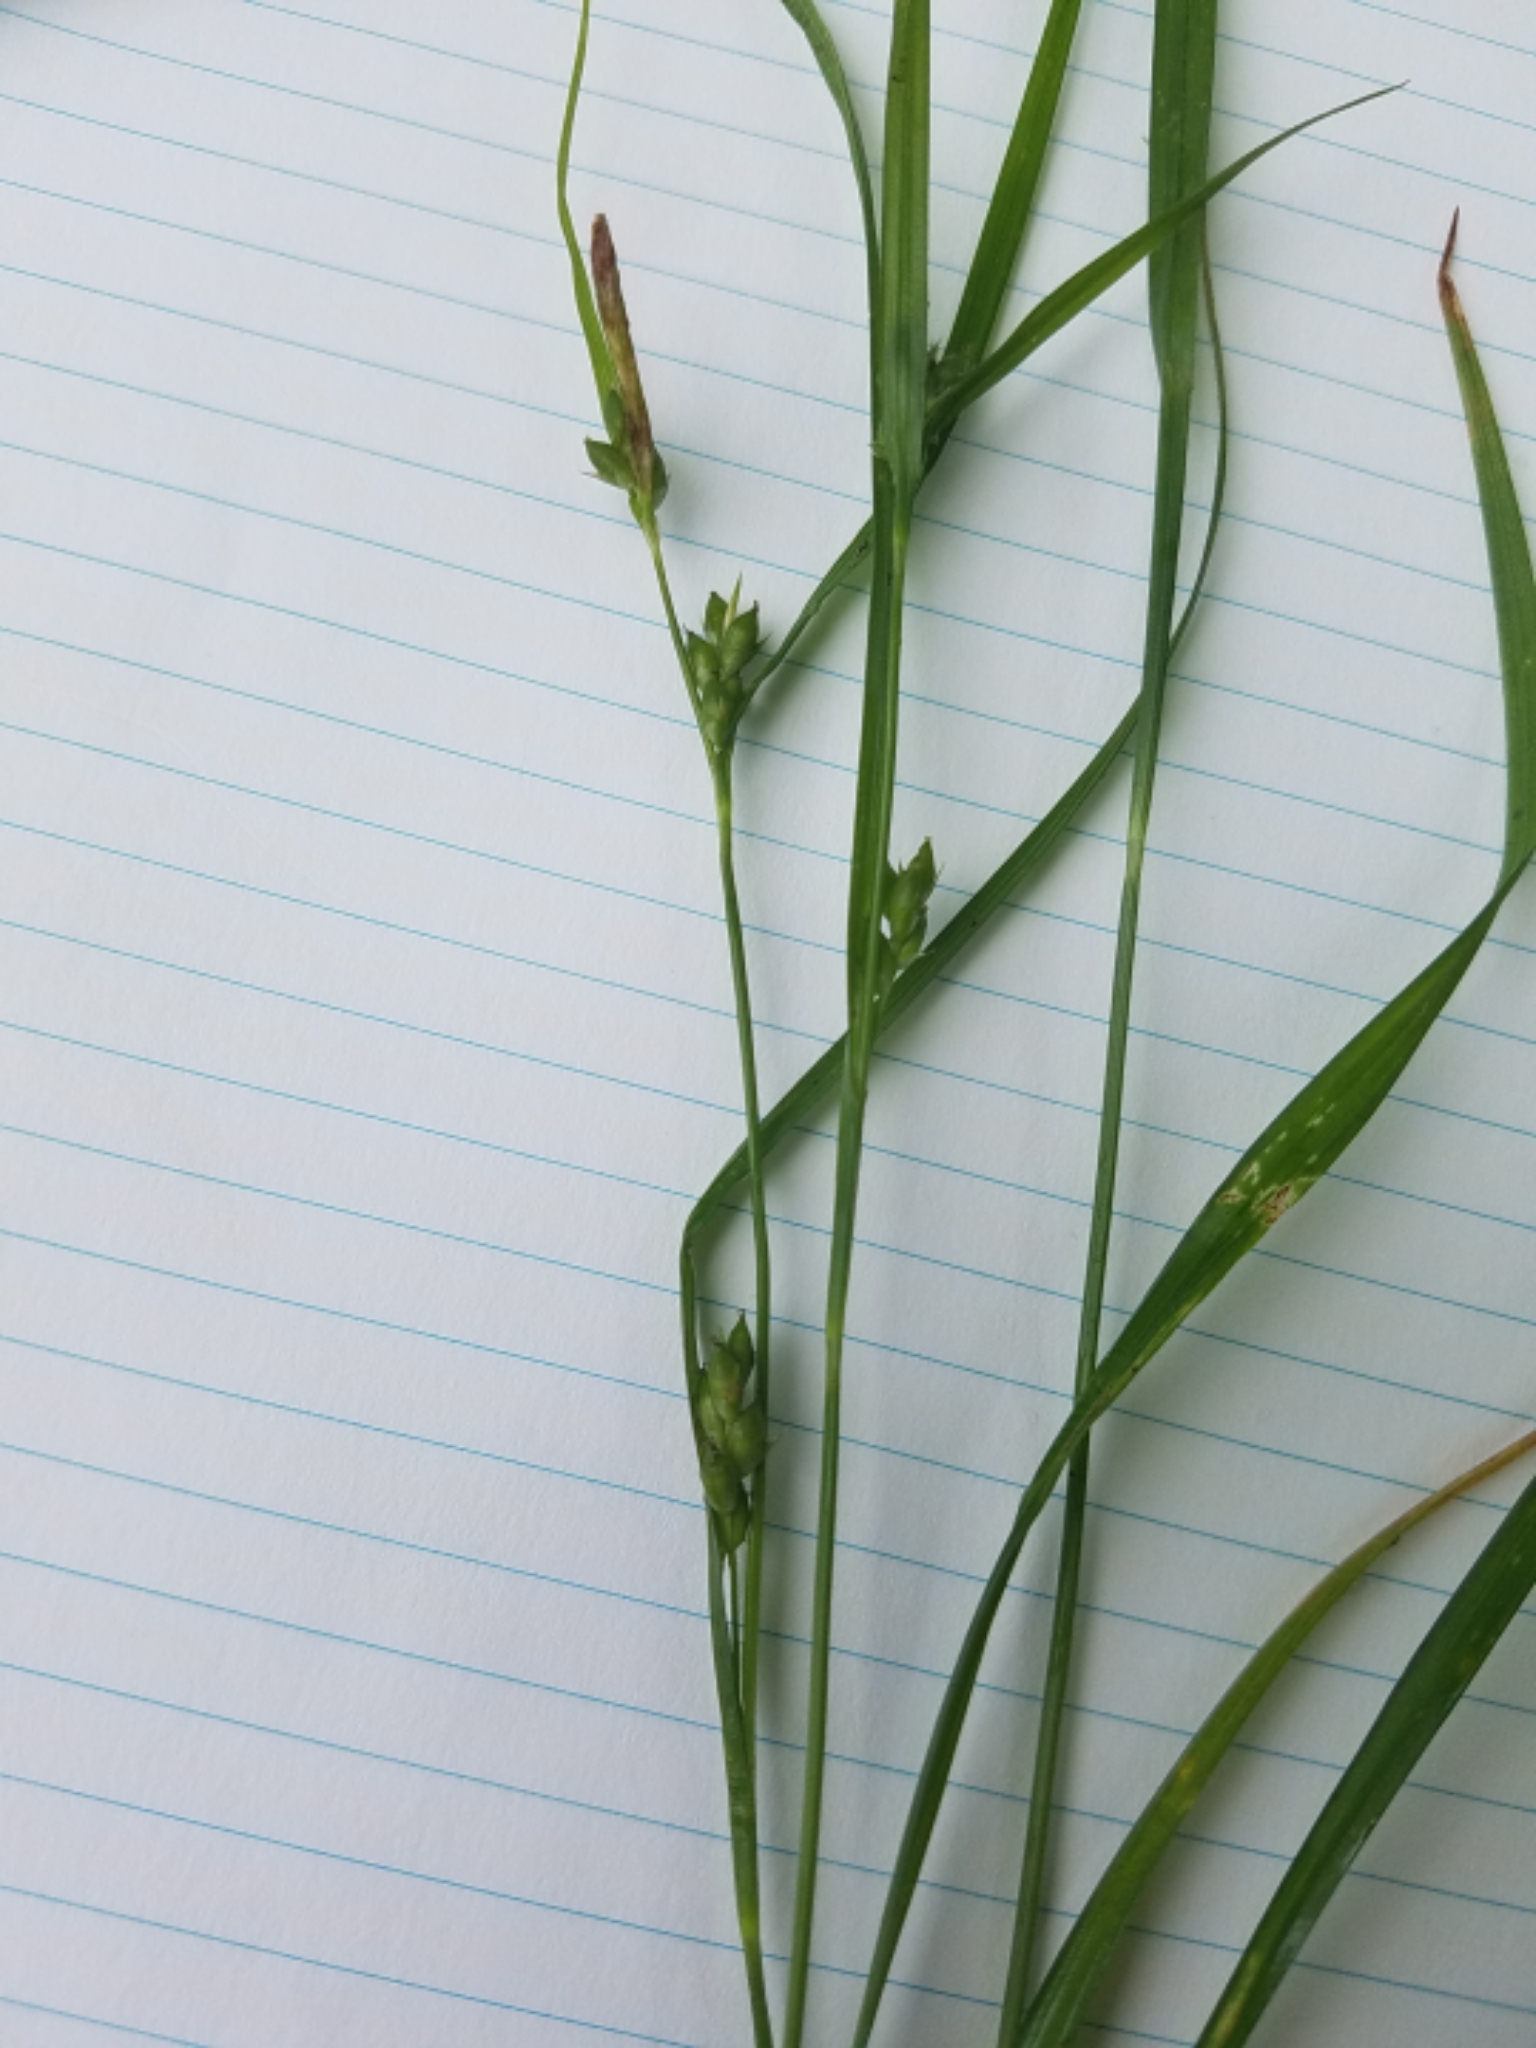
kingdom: Plantae
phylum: Tracheophyta
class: Liliopsida
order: Poales
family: Cyperaceae
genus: Carex
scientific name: Carex grisea
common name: Eastern narrow-leaved sedge
